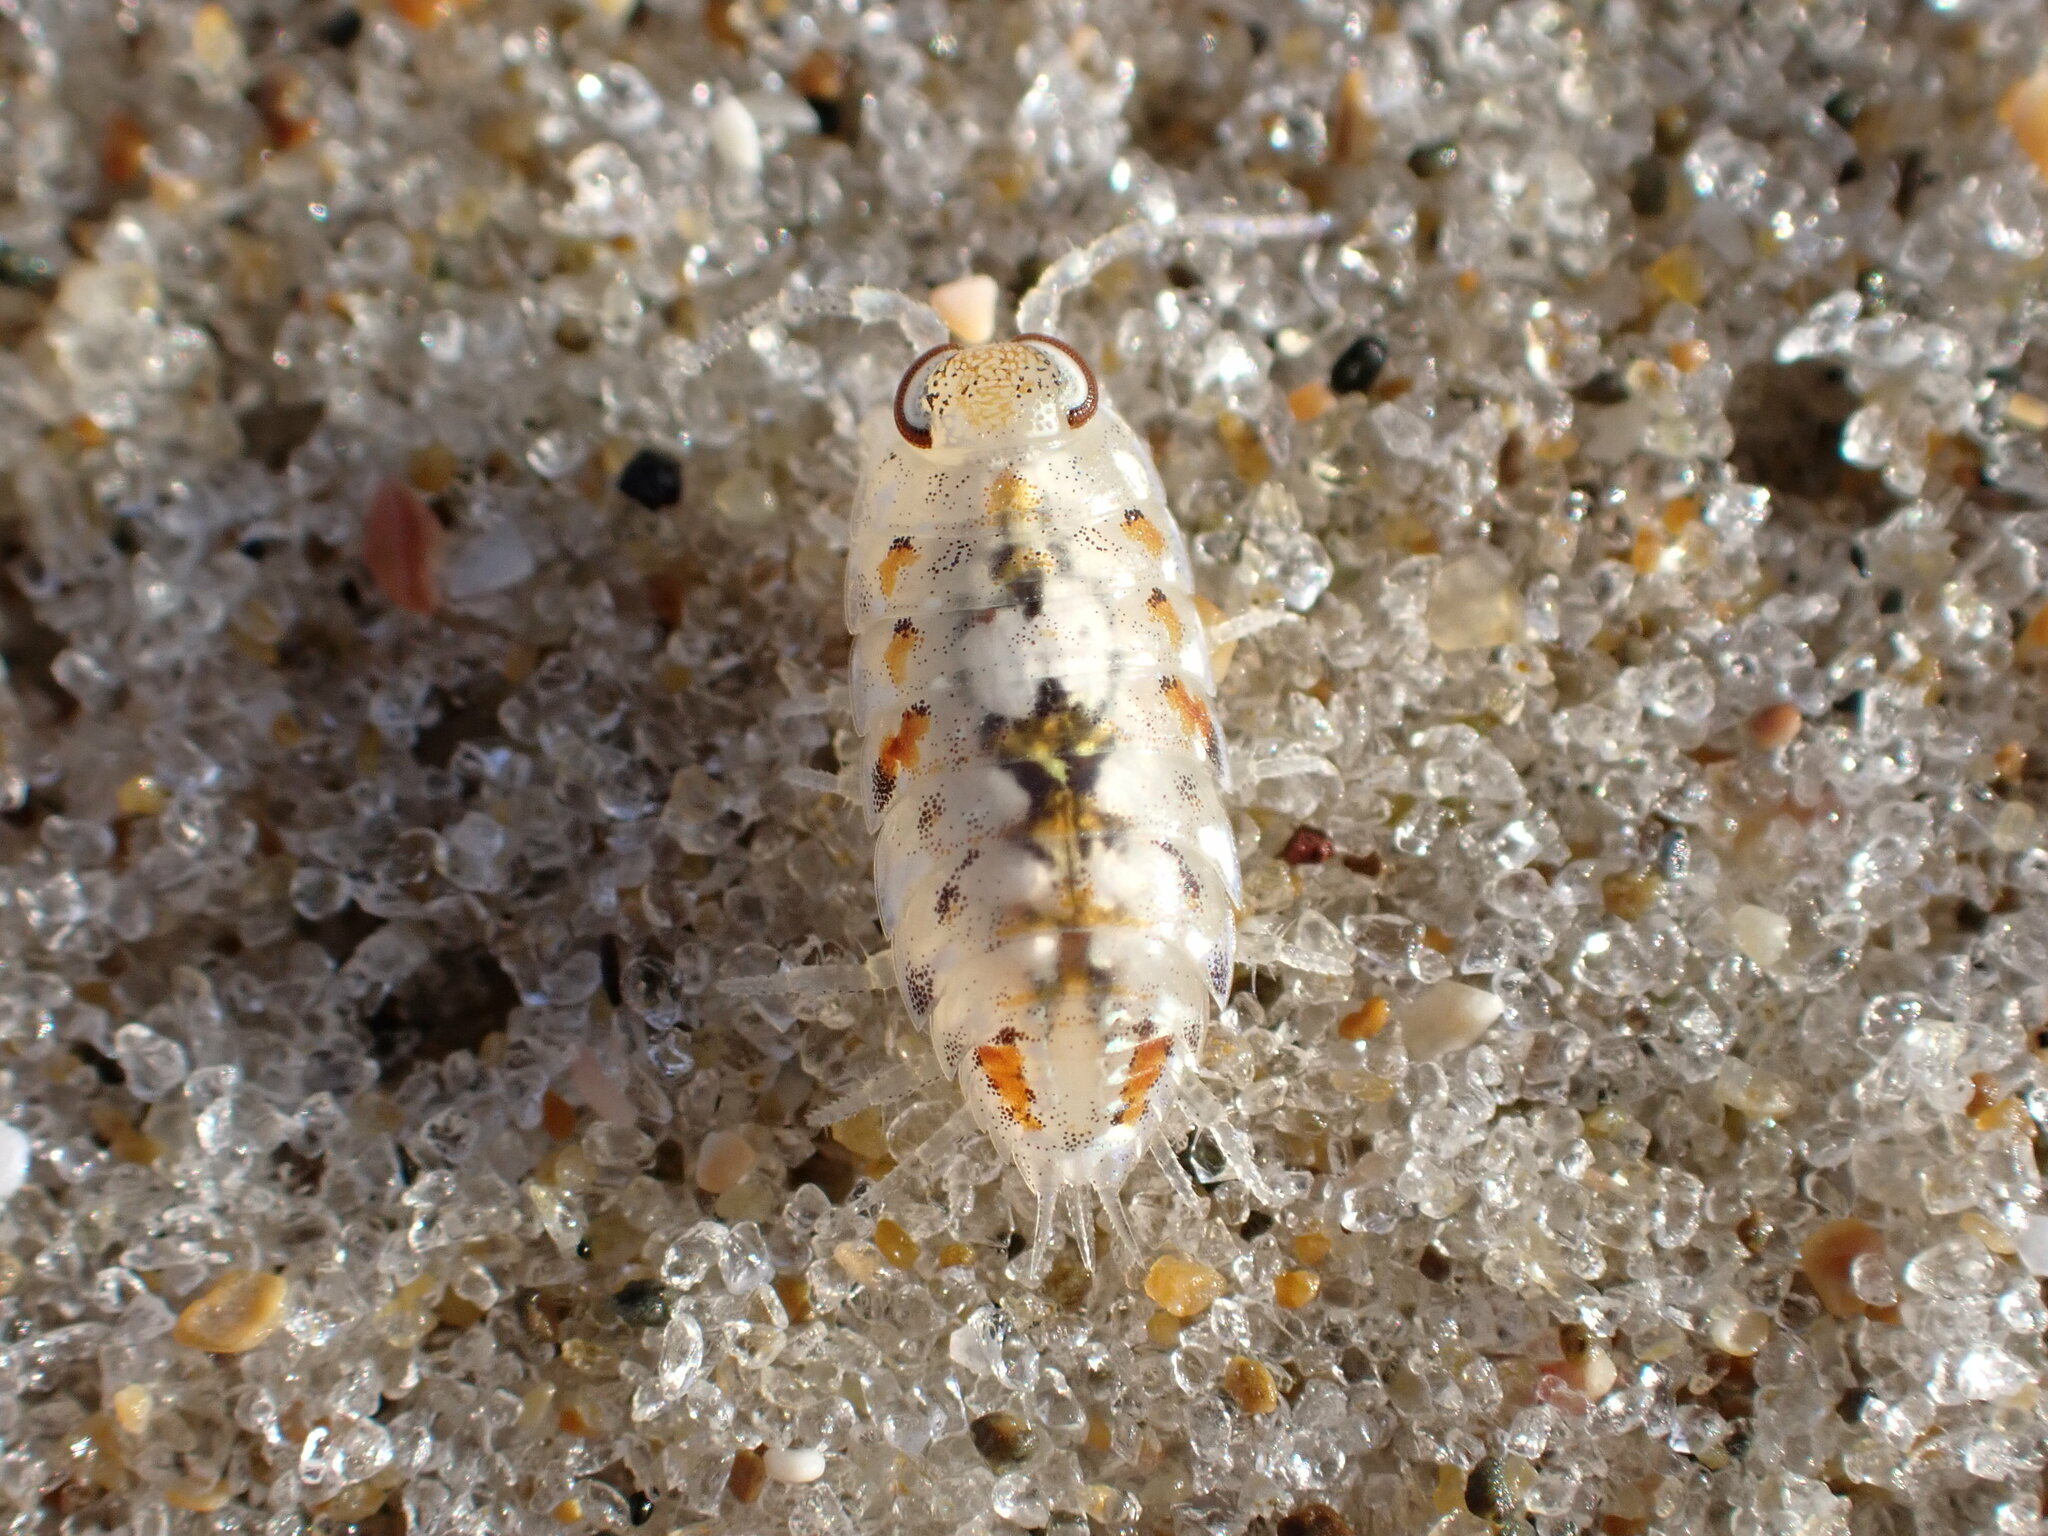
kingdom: Animalia
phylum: Arthropoda
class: Malacostraca
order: Isopoda
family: Scyphacidae
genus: Scyphax
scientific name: Scyphax ornatus
